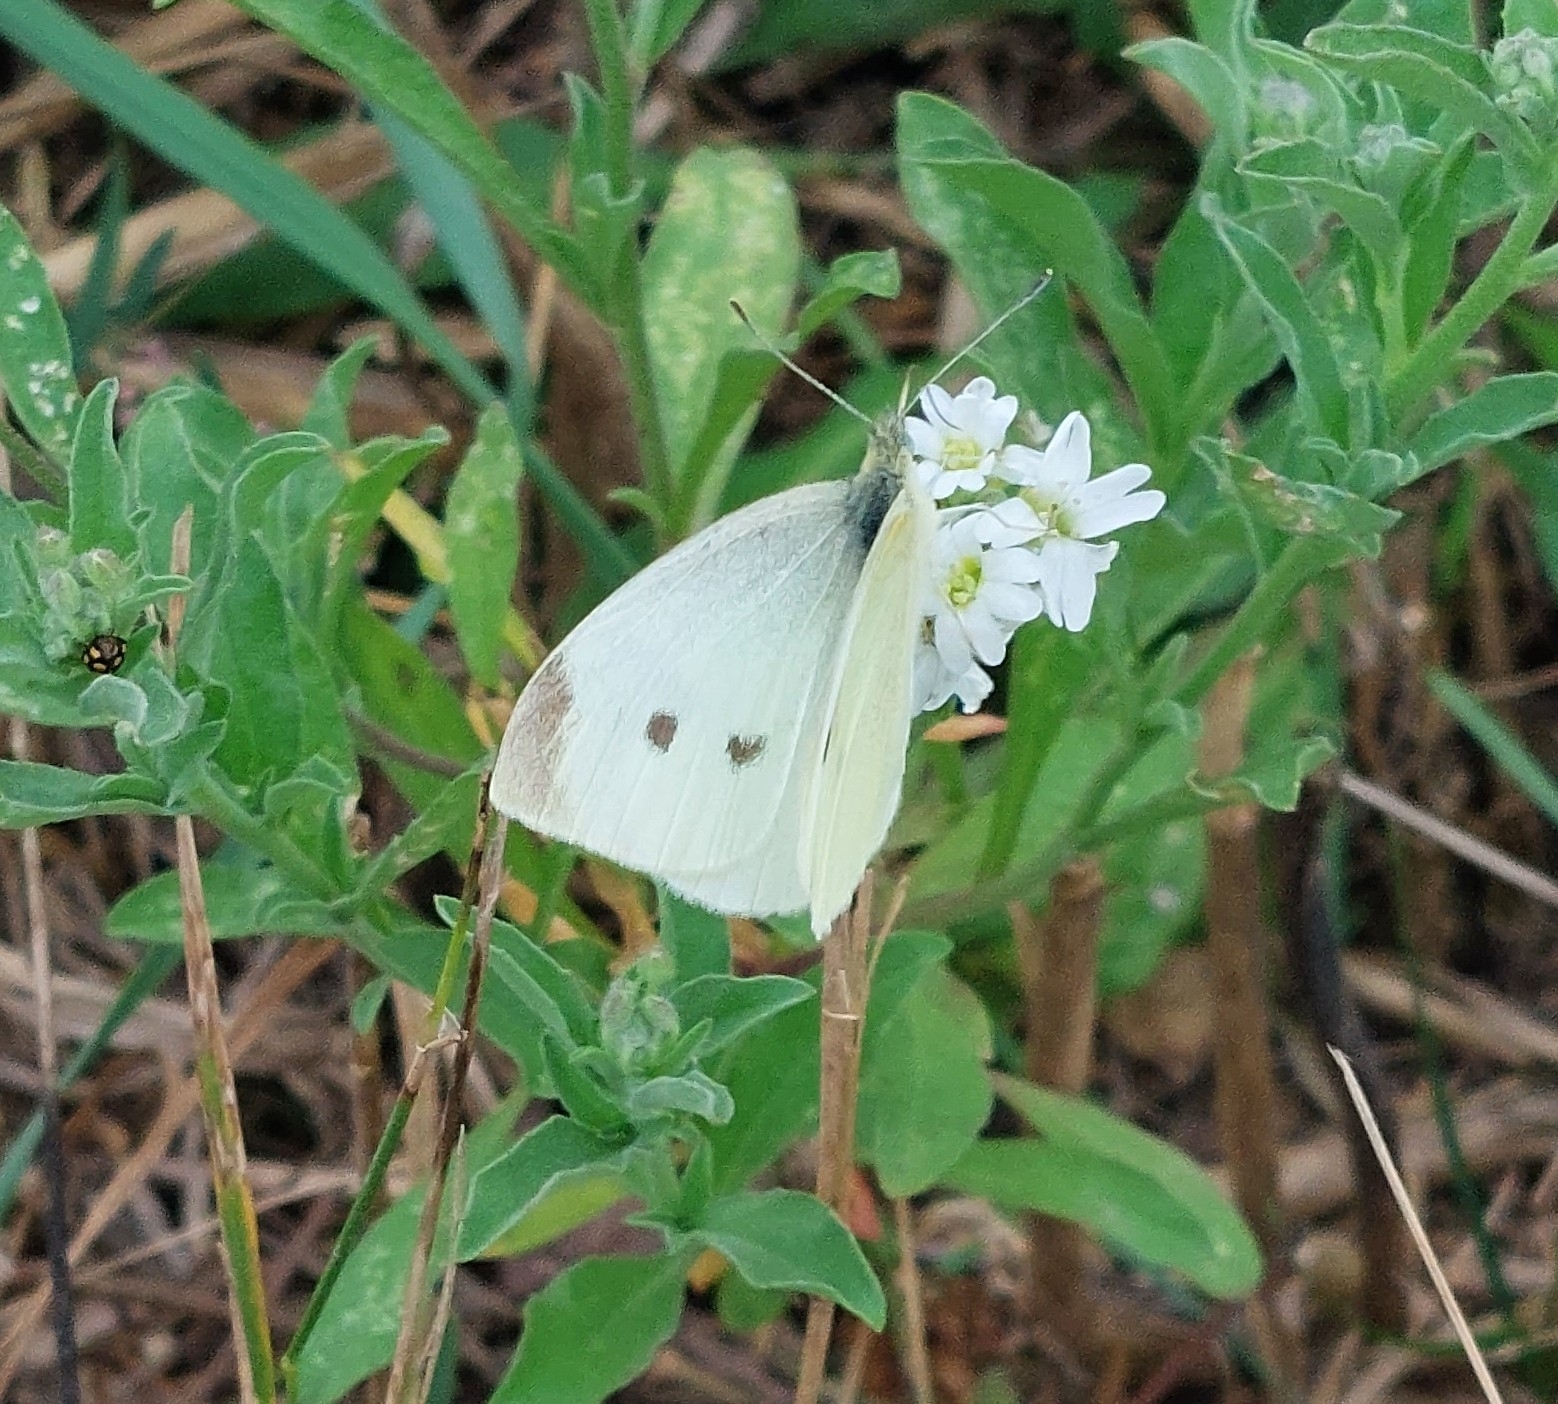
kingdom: Animalia
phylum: Arthropoda
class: Insecta
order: Lepidoptera
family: Pieridae
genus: Pieris
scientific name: Pieris rapae
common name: Small white
